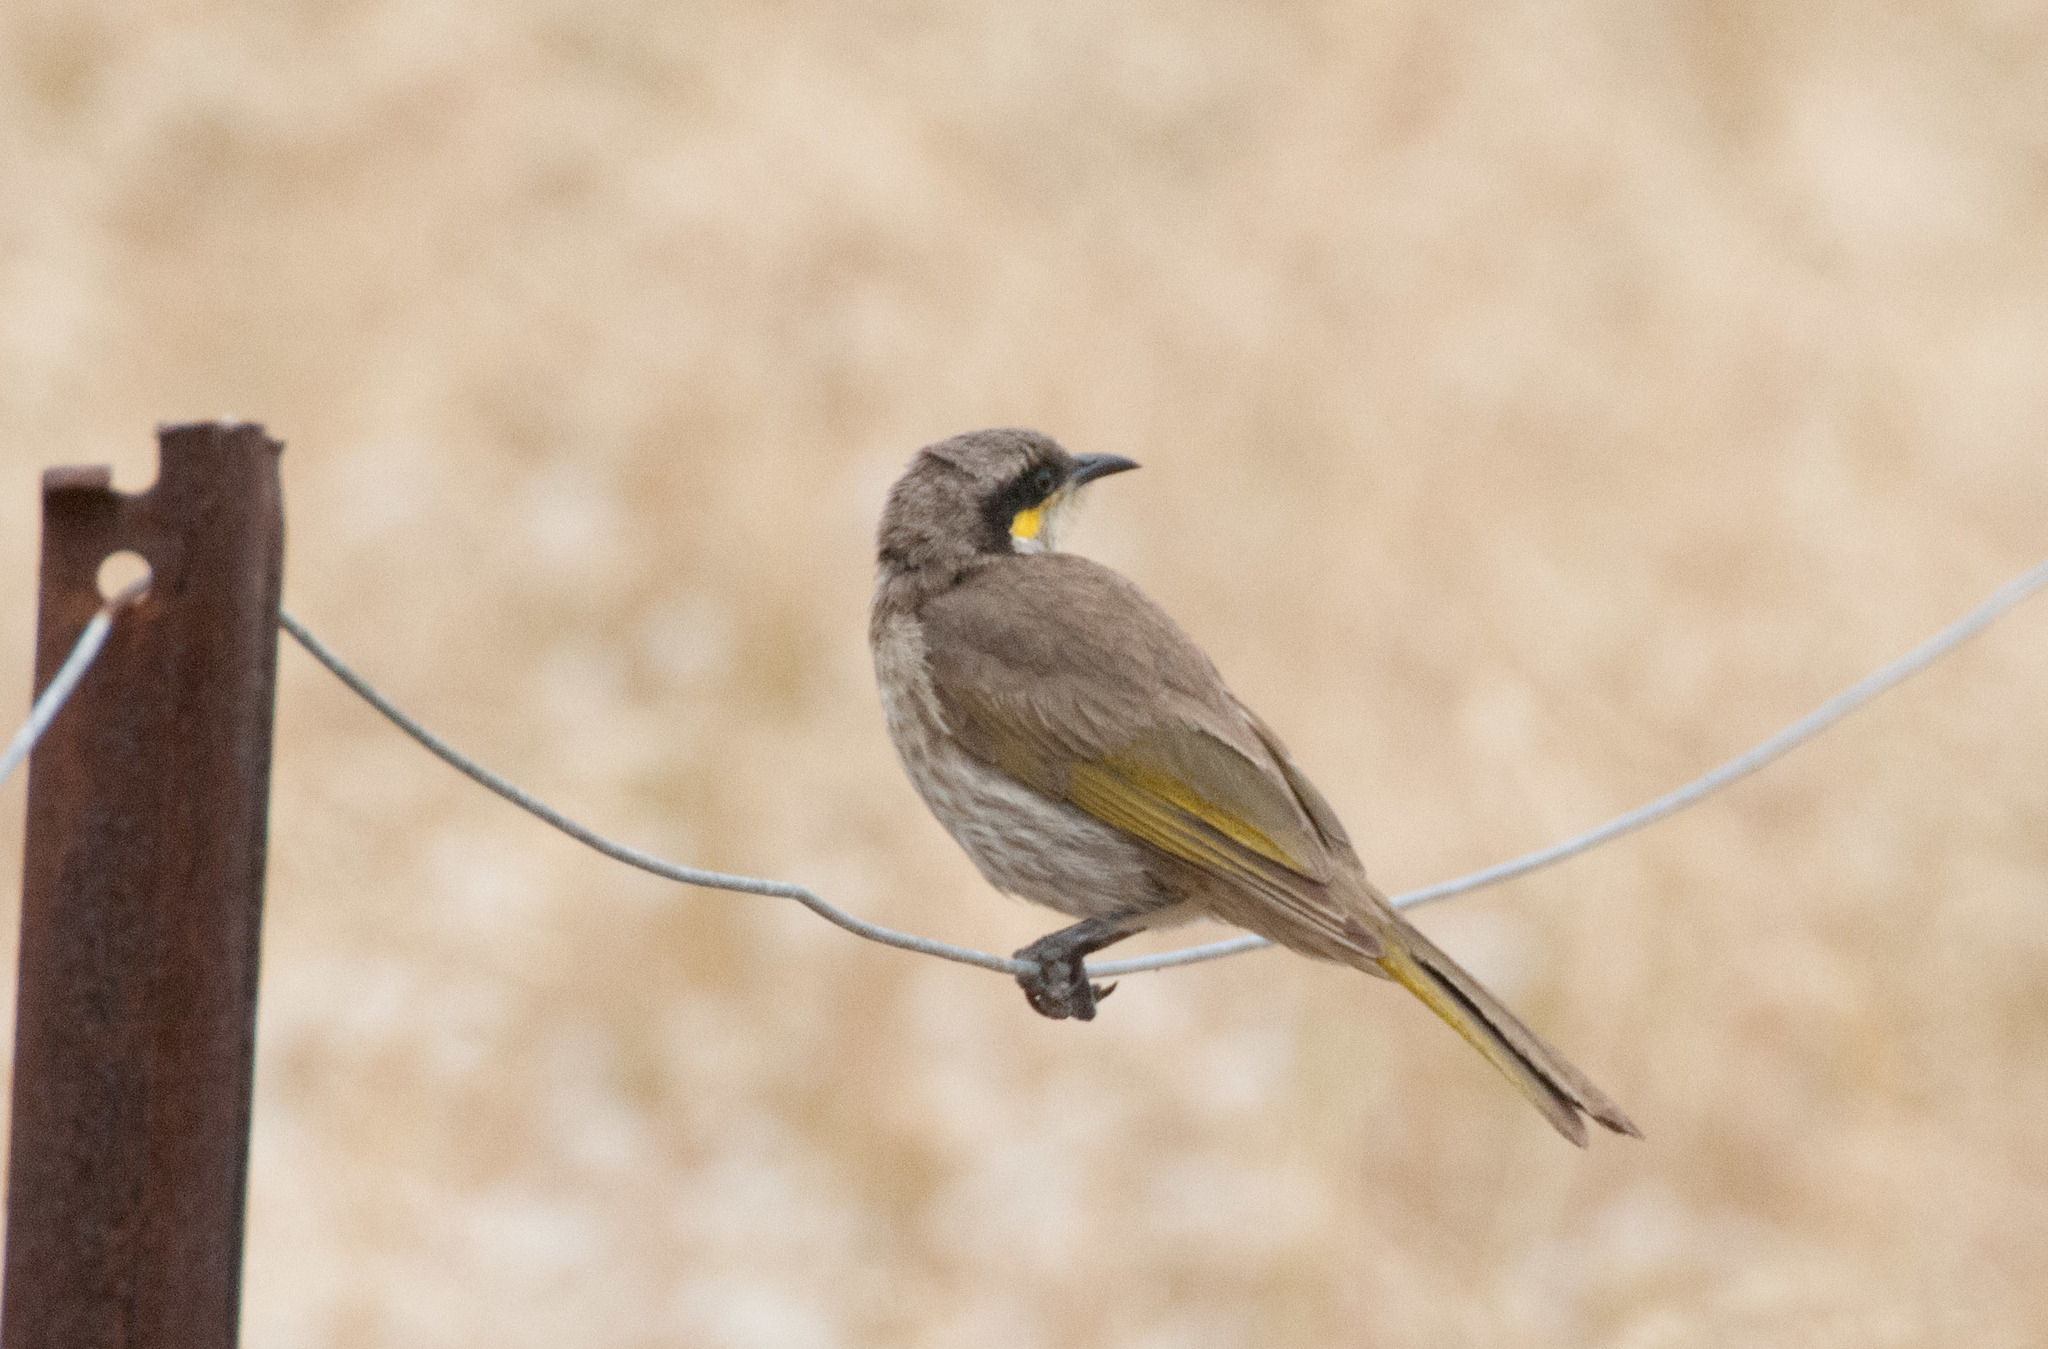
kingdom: Animalia
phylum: Chordata
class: Aves
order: Passeriformes
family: Meliphagidae
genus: Gavicalis
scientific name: Gavicalis virescens
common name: Singing honeyeater
